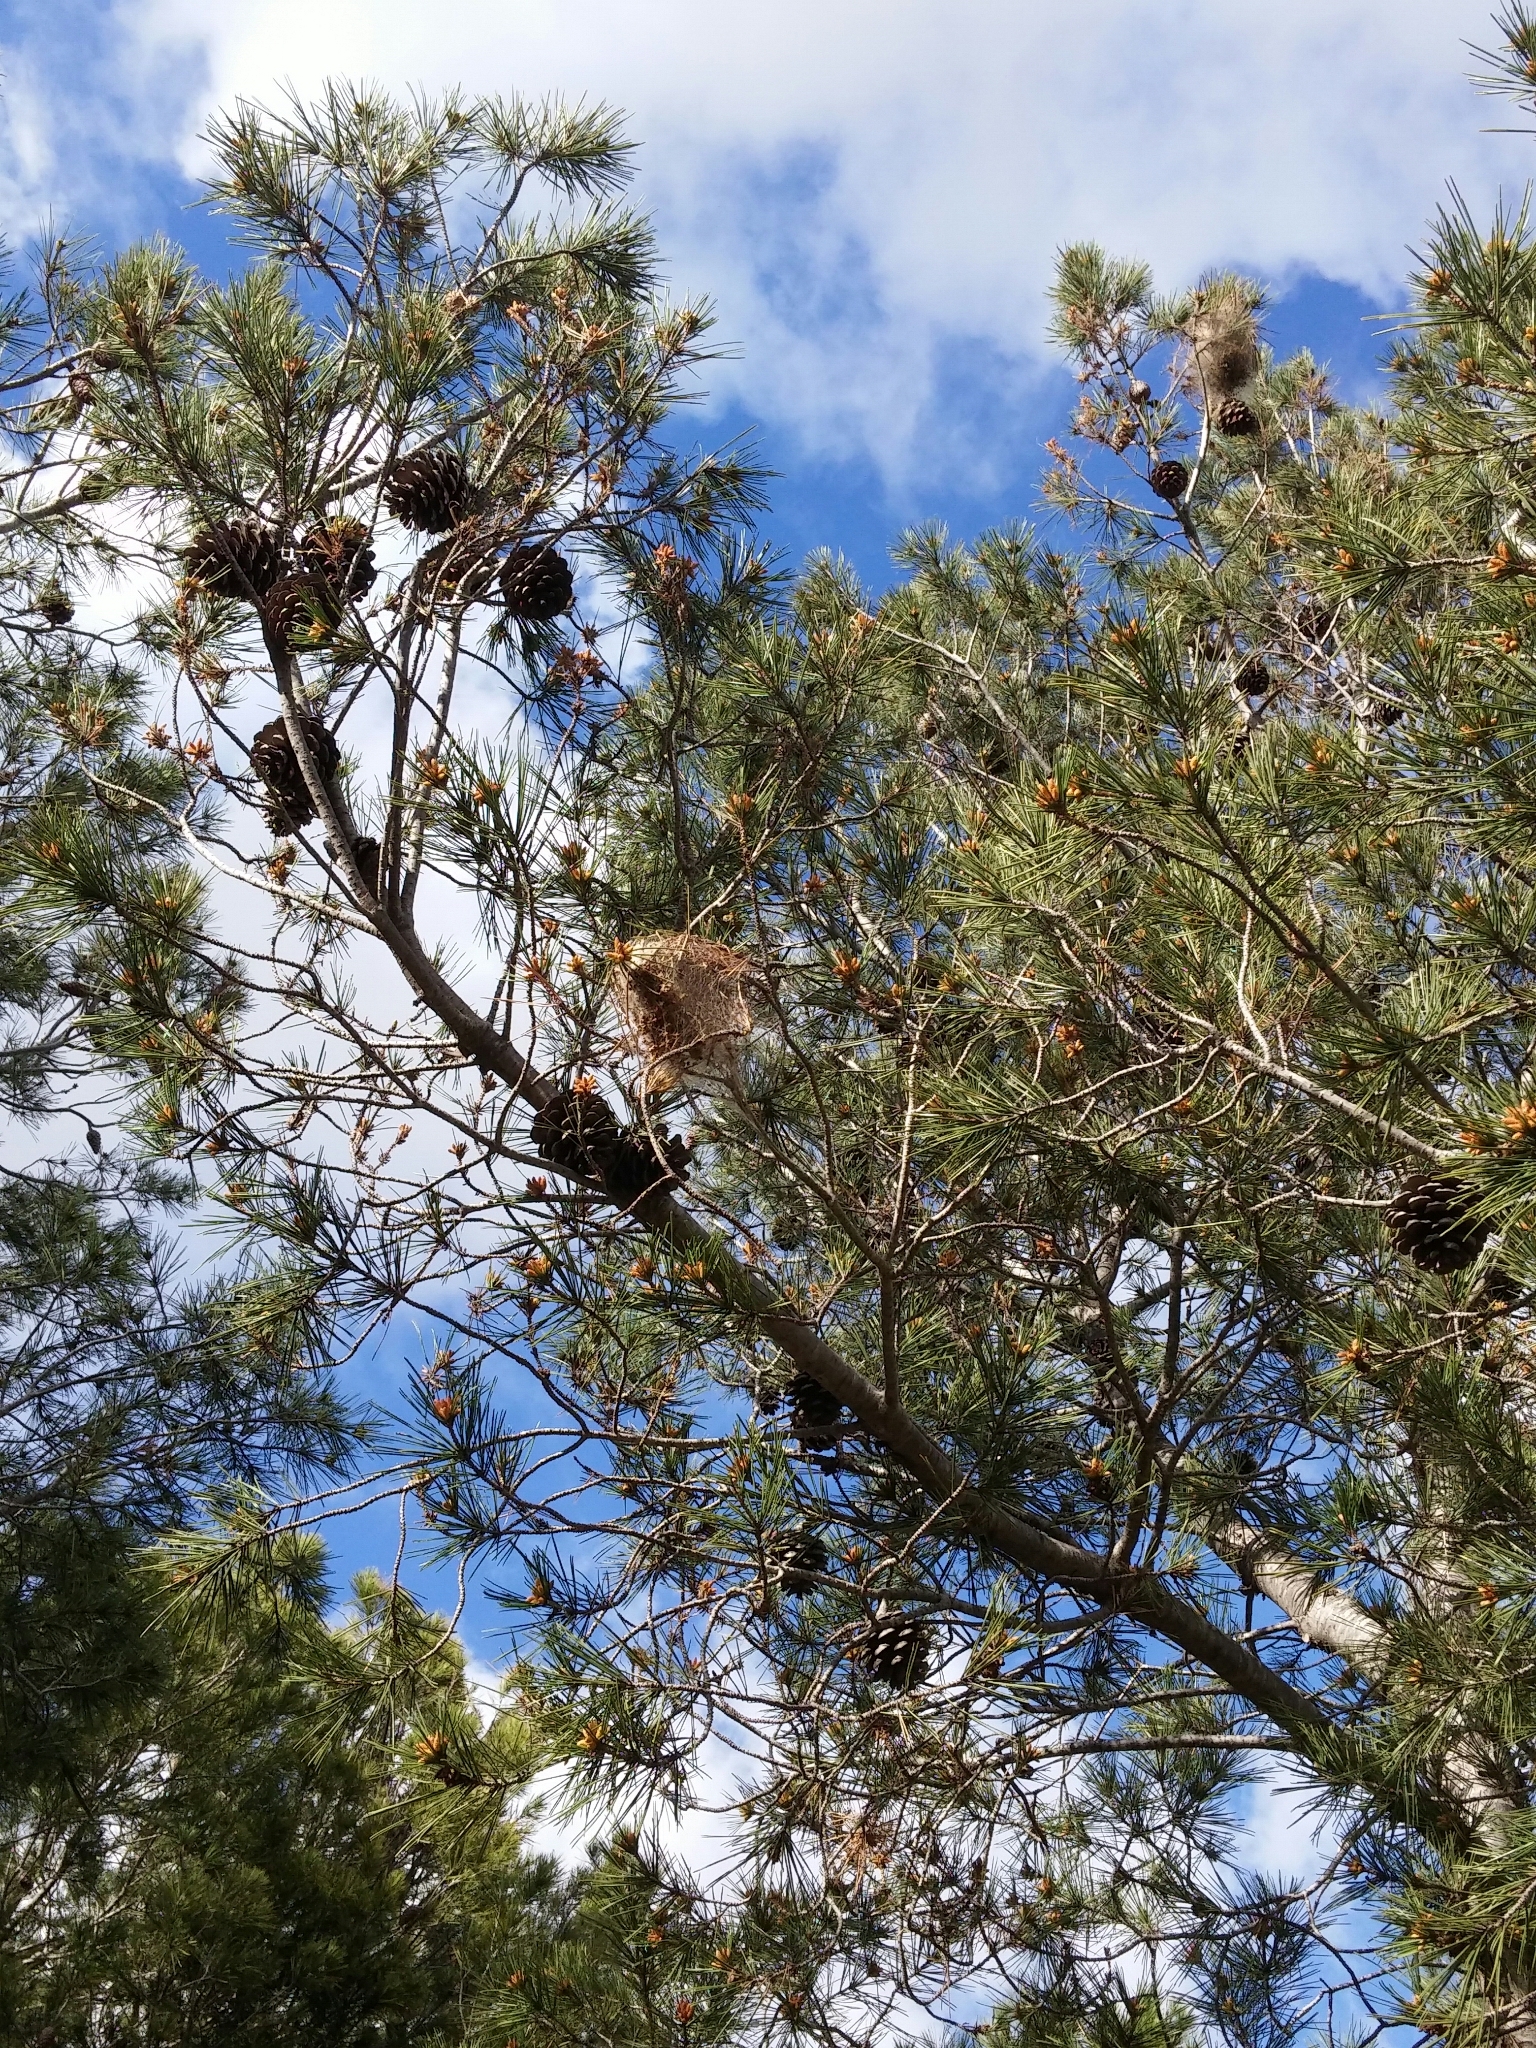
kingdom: Animalia
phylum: Arthropoda
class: Insecta
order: Lepidoptera
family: Notodontidae
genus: Thaumetopoea
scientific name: Thaumetopoea pityocampa
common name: Pine processionary
